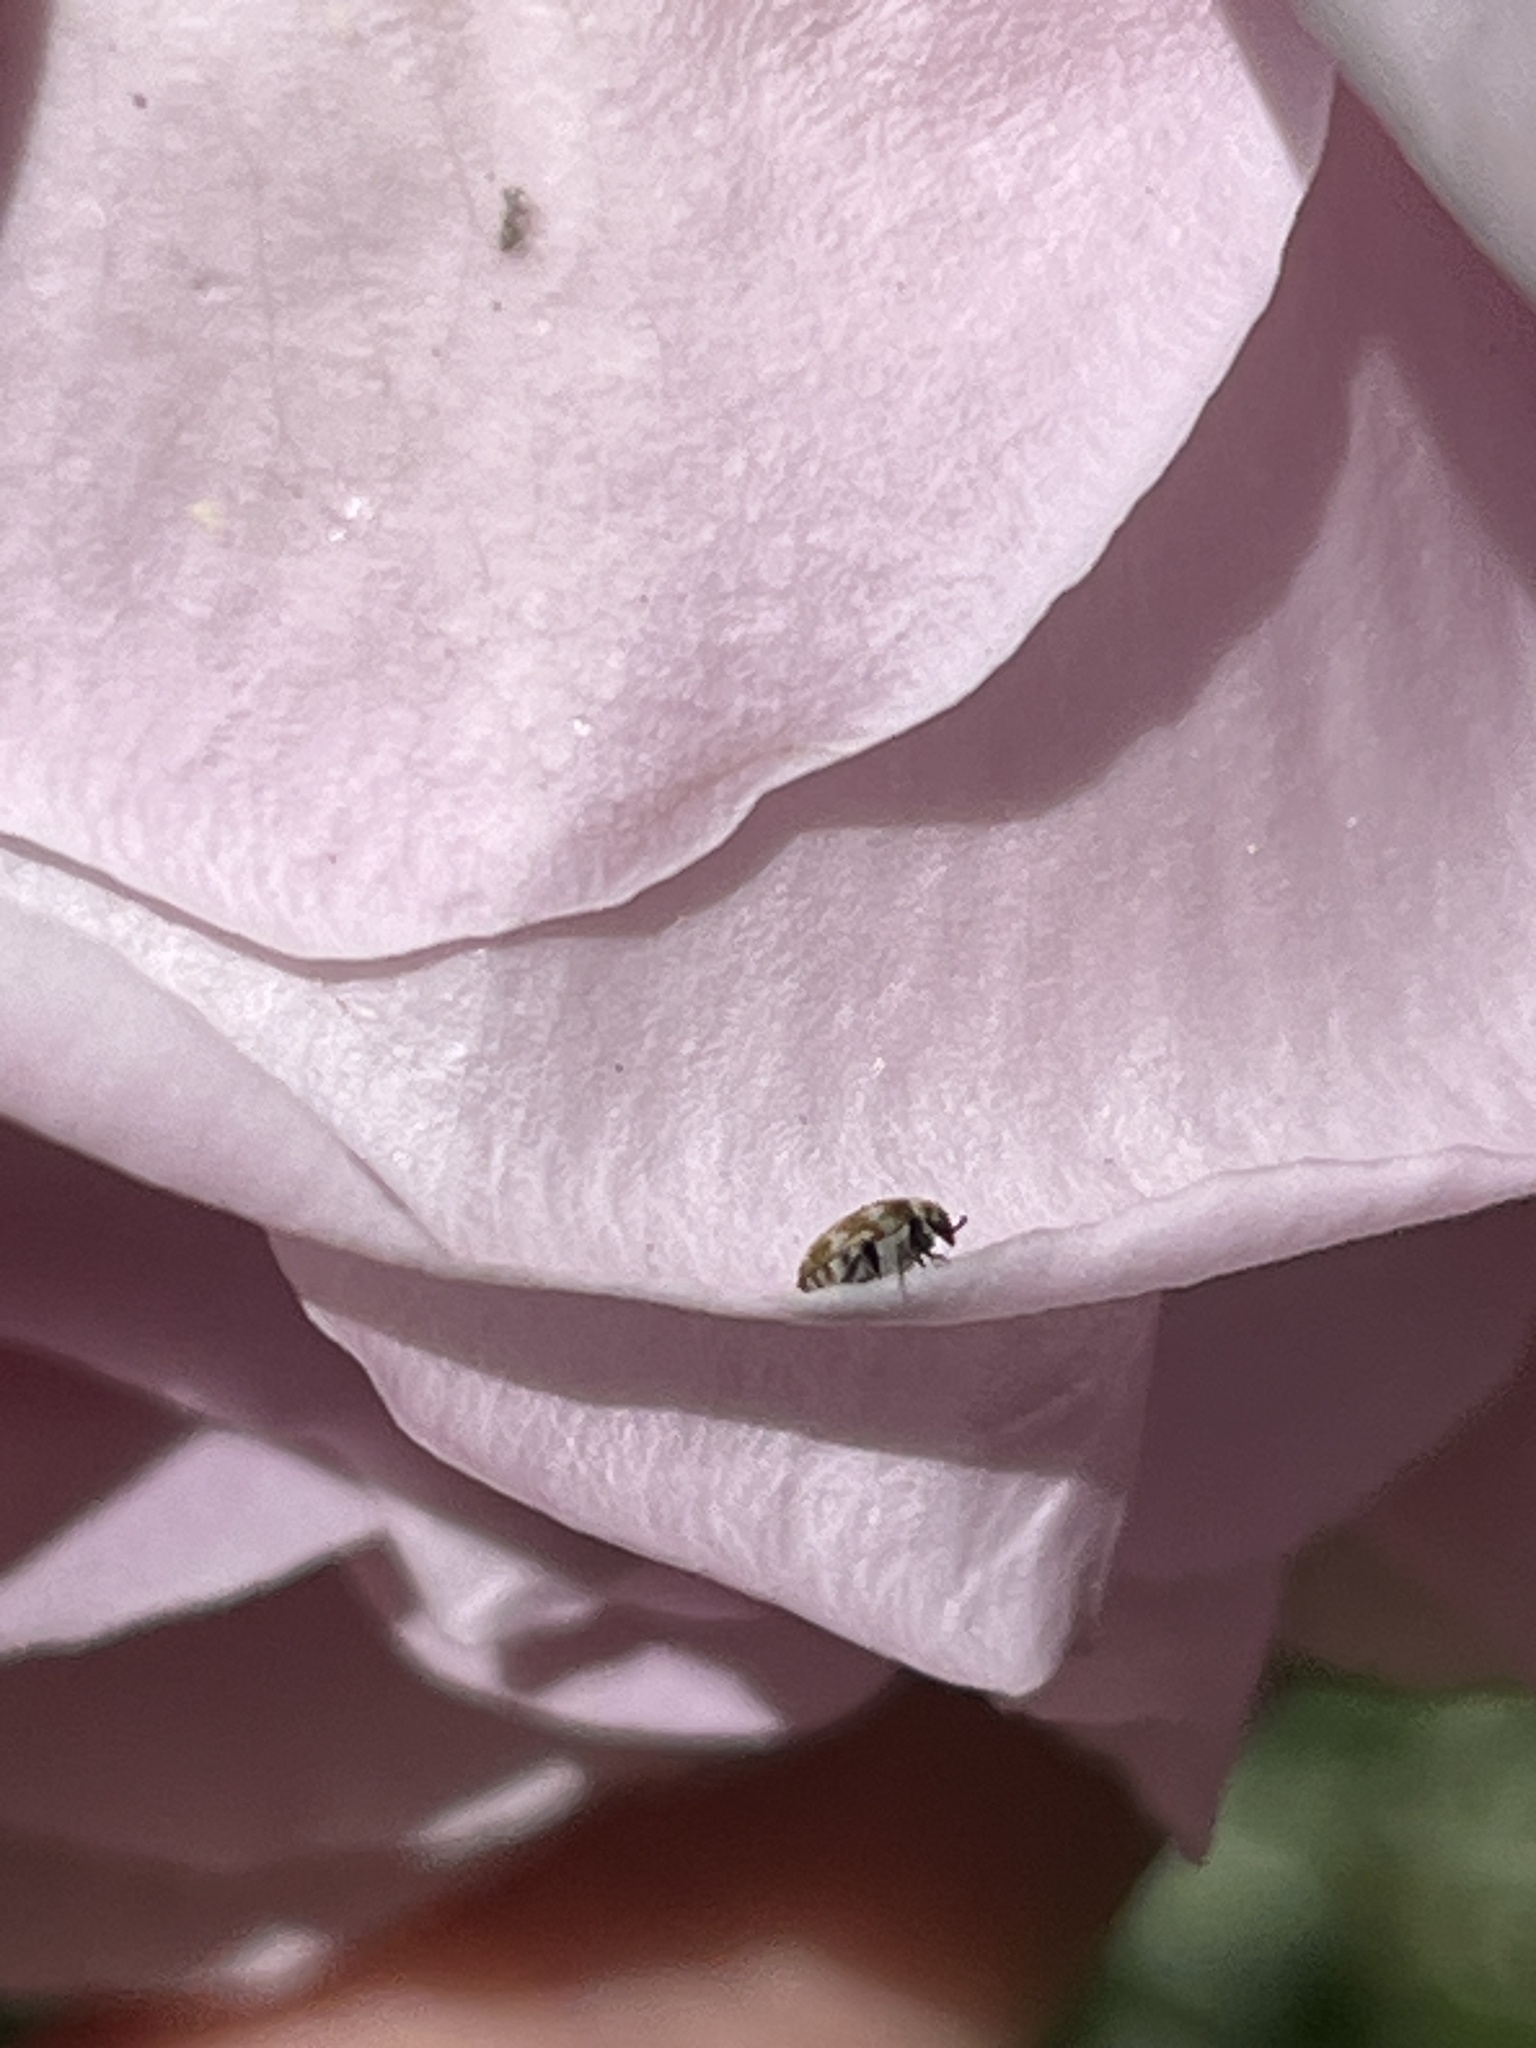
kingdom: Animalia
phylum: Arthropoda
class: Insecta
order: Coleoptera
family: Dermestidae
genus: Anthrenus
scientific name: Anthrenus verbasci
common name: Varied carpet beetle
